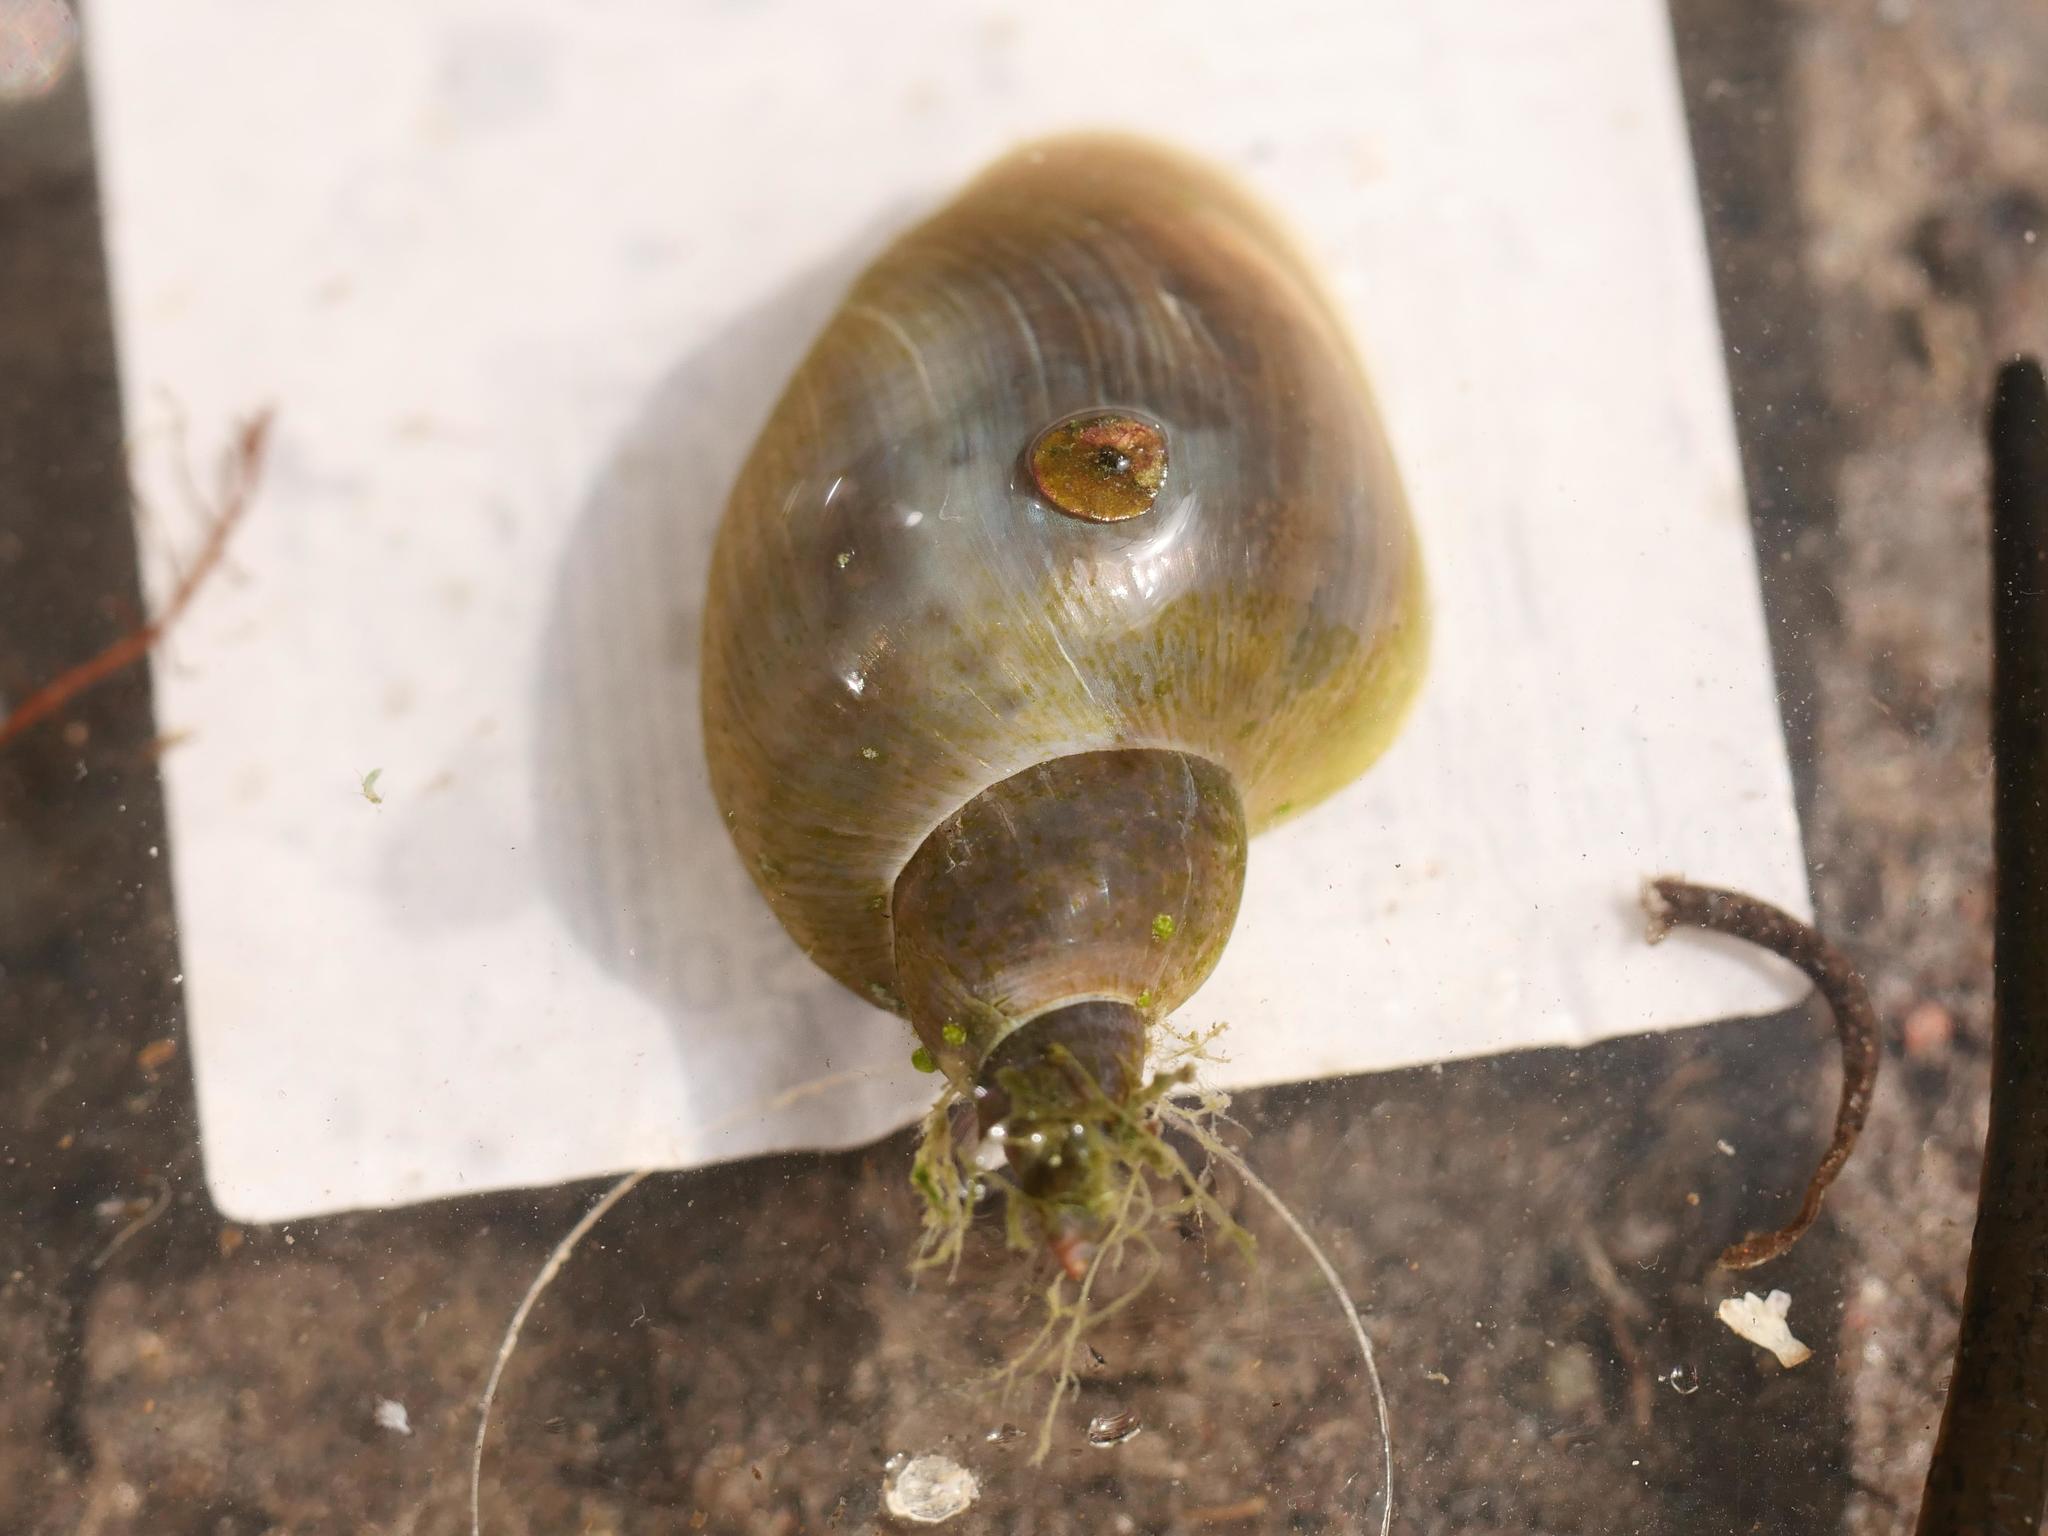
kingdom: Animalia
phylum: Mollusca
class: Gastropoda
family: Lymnaeidae
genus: Lymnaea
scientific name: Lymnaea stagnalis
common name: Great pond snail
